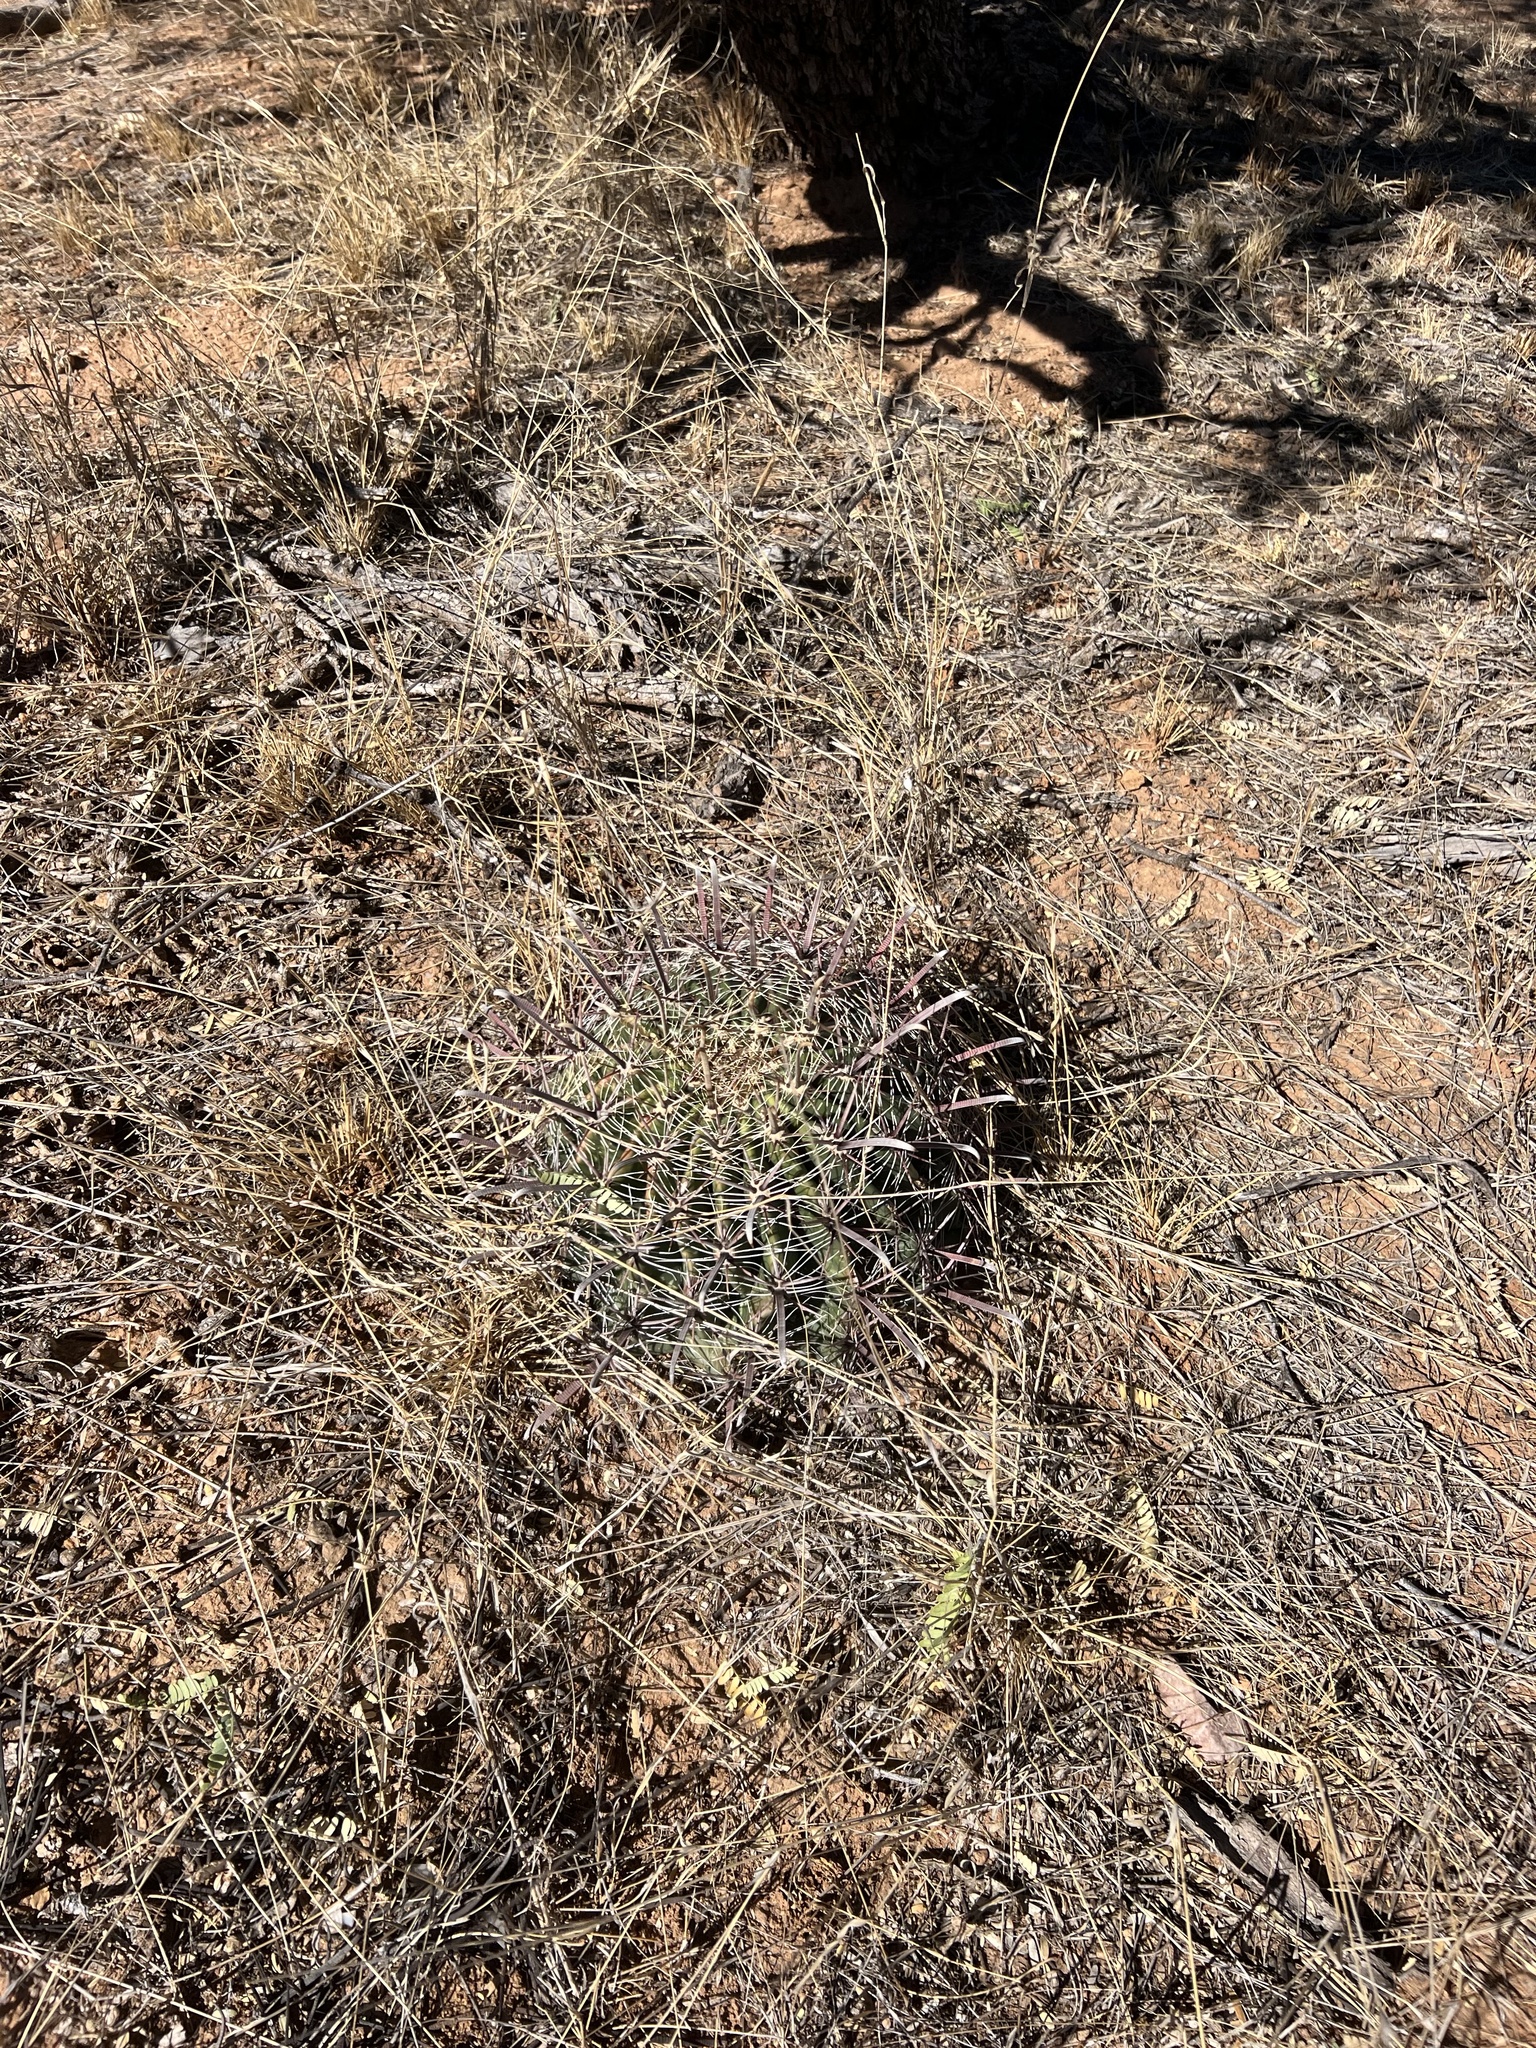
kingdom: Plantae
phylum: Tracheophyta
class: Magnoliopsida
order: Caryophyllales
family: Cactaceae
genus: Ferocactus
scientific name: Ferocactus wislizeni
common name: Candy barrel cactus
